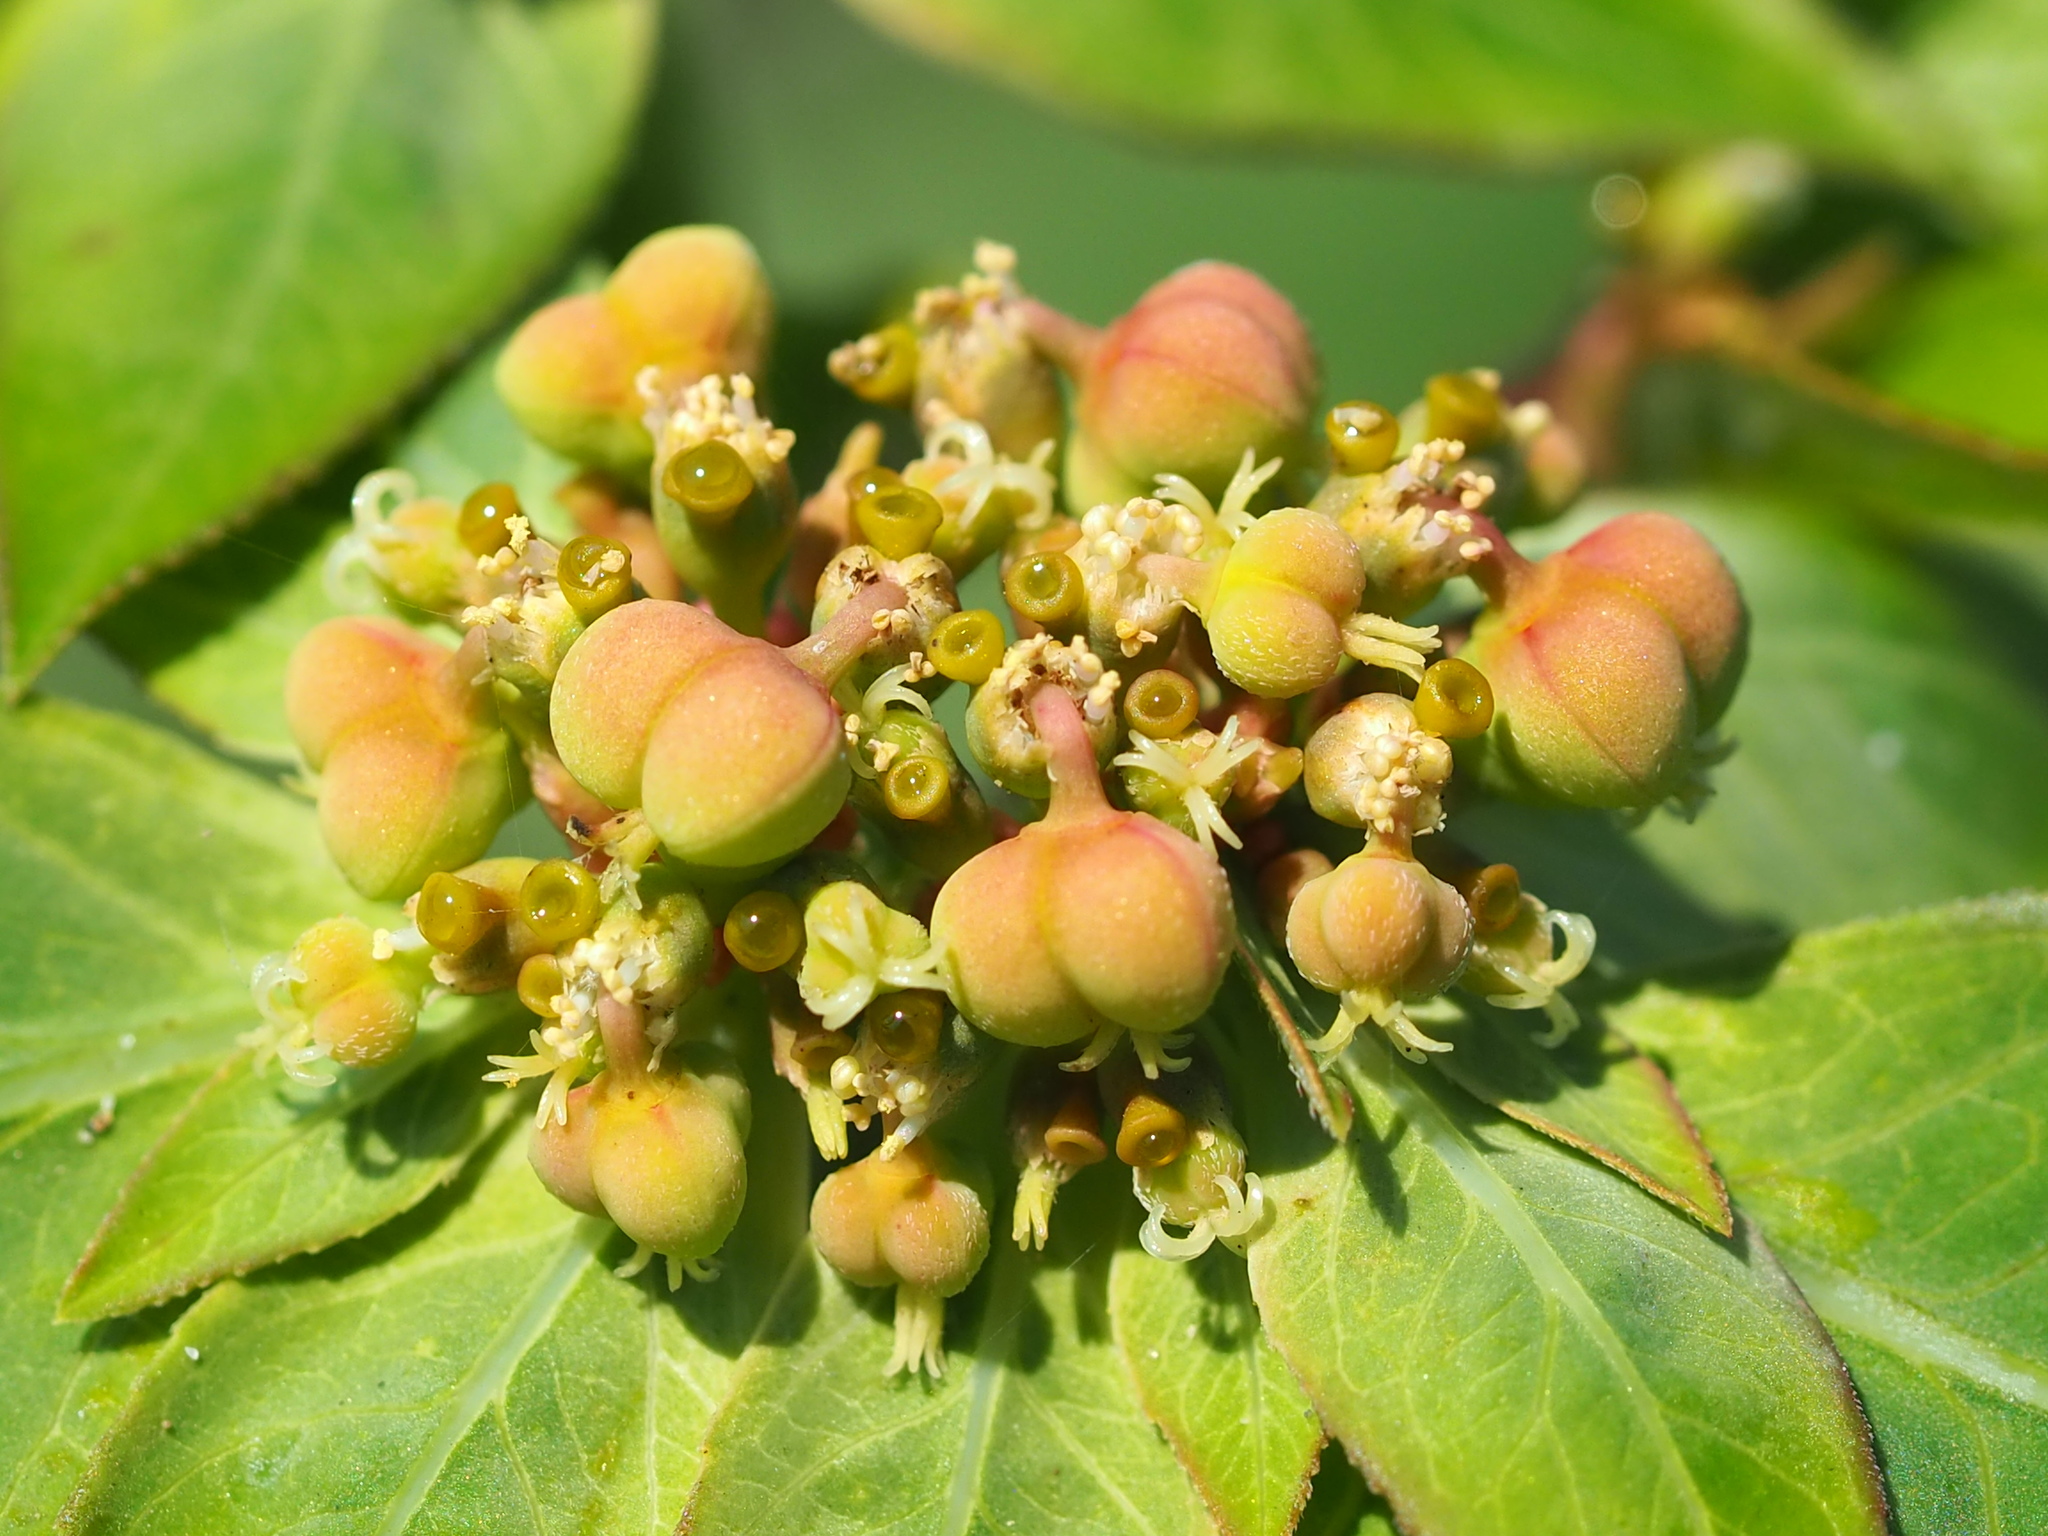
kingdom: Plantae
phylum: Tracheophyta
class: Magnoliopsida
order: Malpighiales
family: Euphorbiaceae
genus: Euphorbia
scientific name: Euphorbia heterophylla
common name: Mexican fireplant
